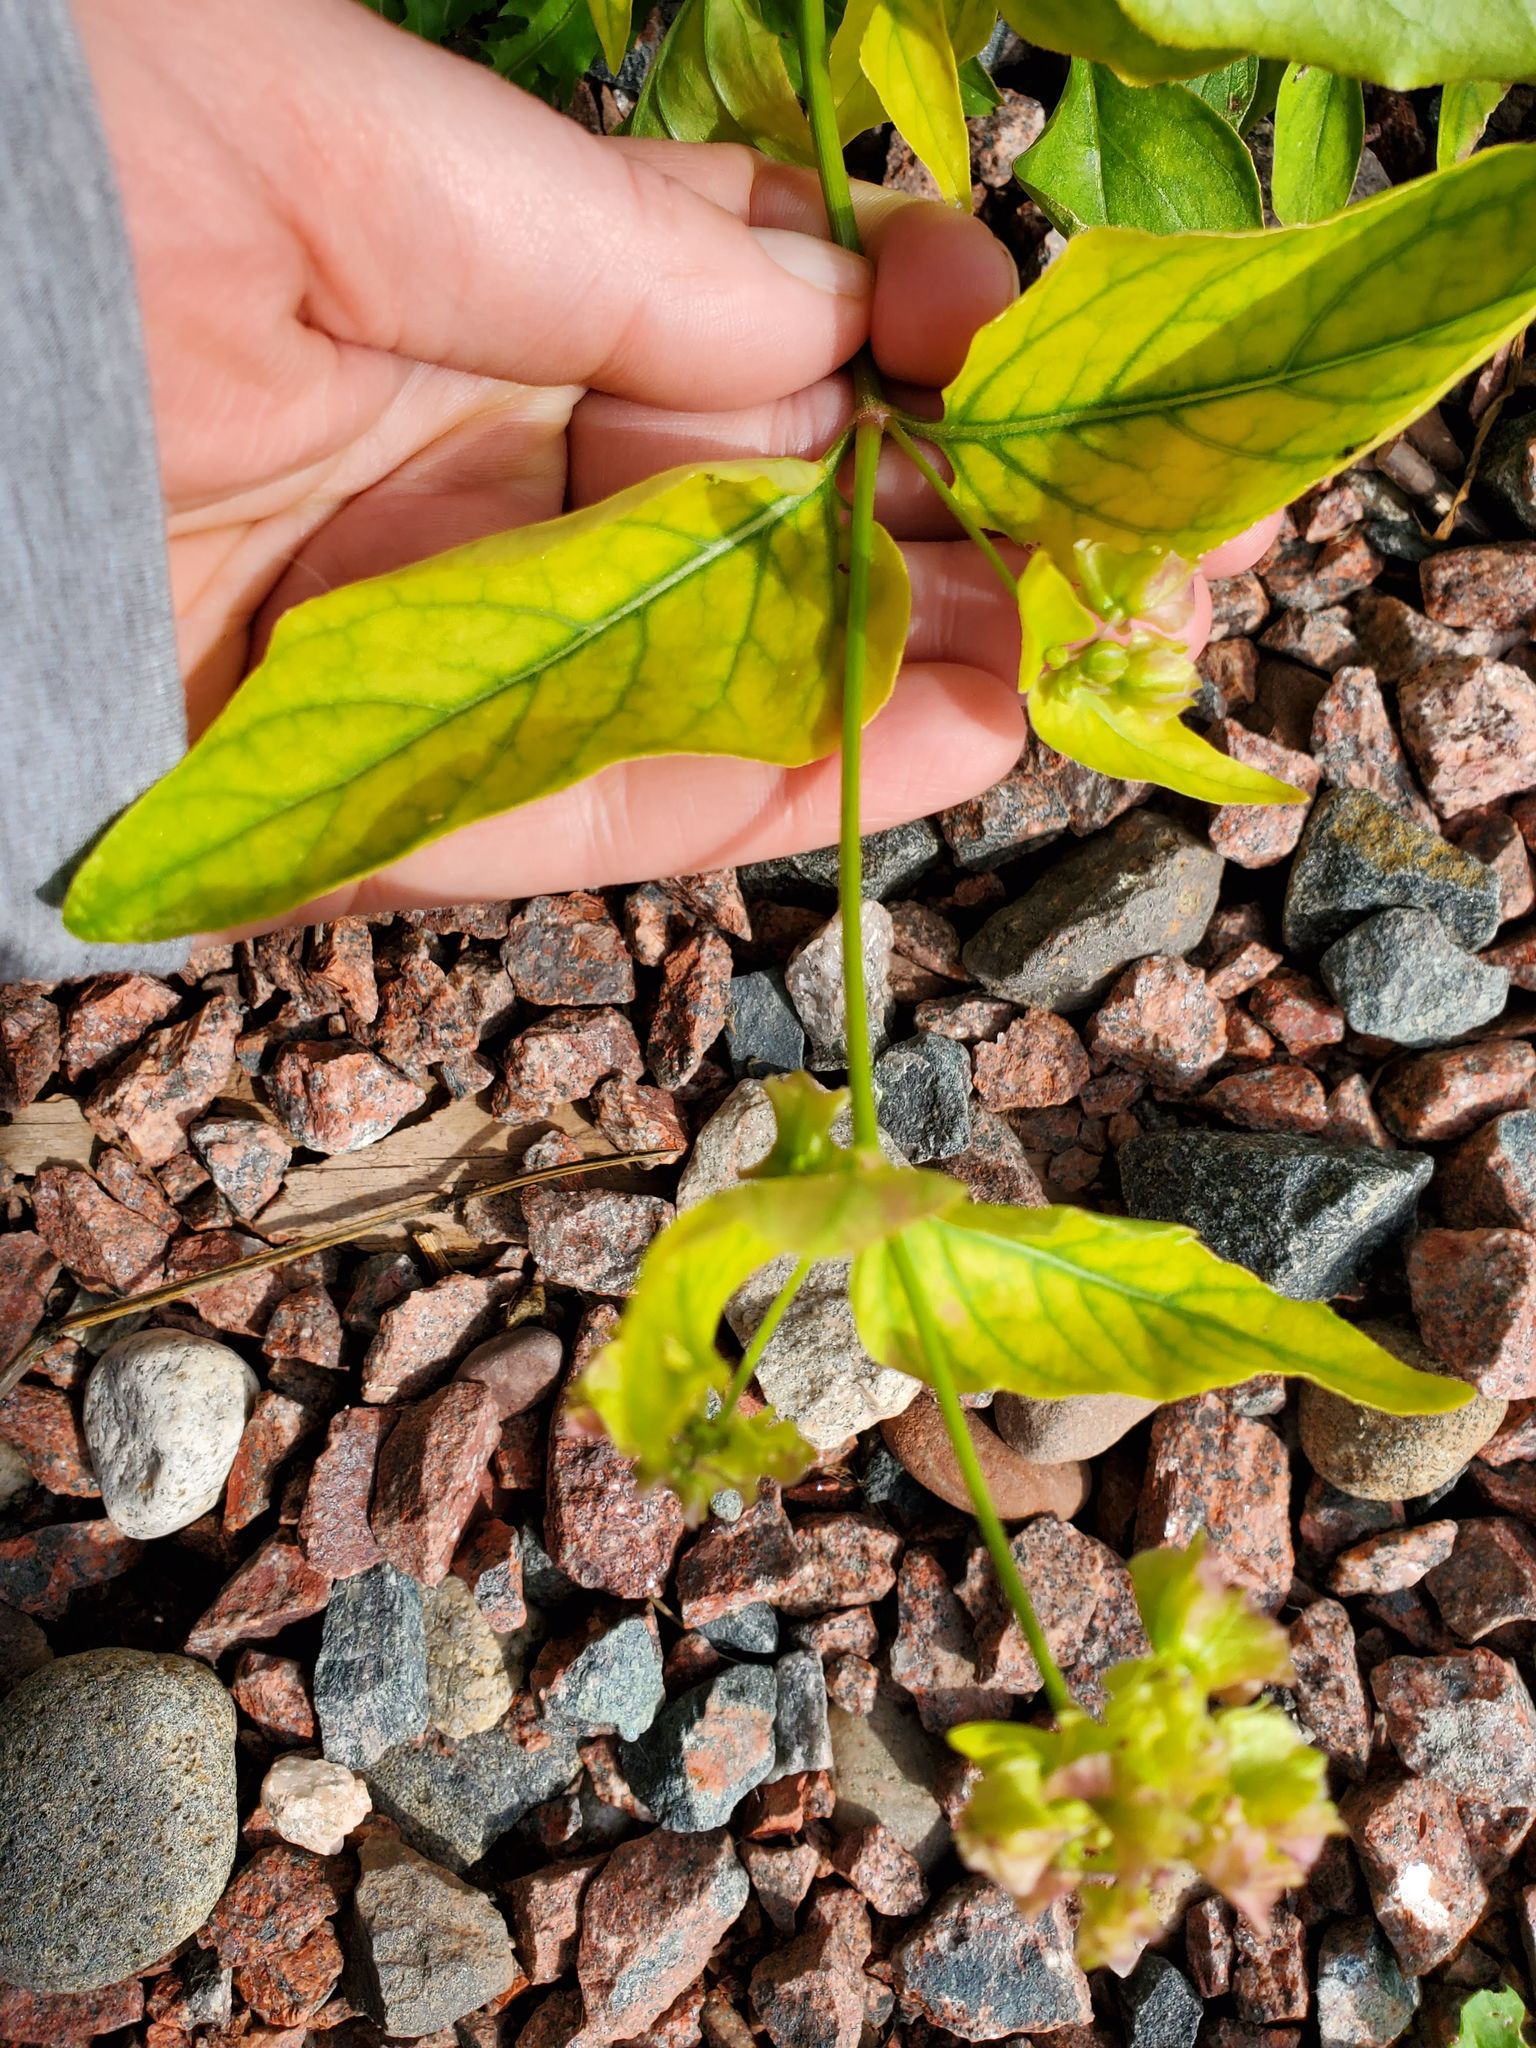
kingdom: Plantae
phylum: Tracheophyta
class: Magnoliopsida
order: Caryophyllales
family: Nyctaginaceae
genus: Mirabilis
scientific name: Mirabilis nyctaginea
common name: Umbrella wort
